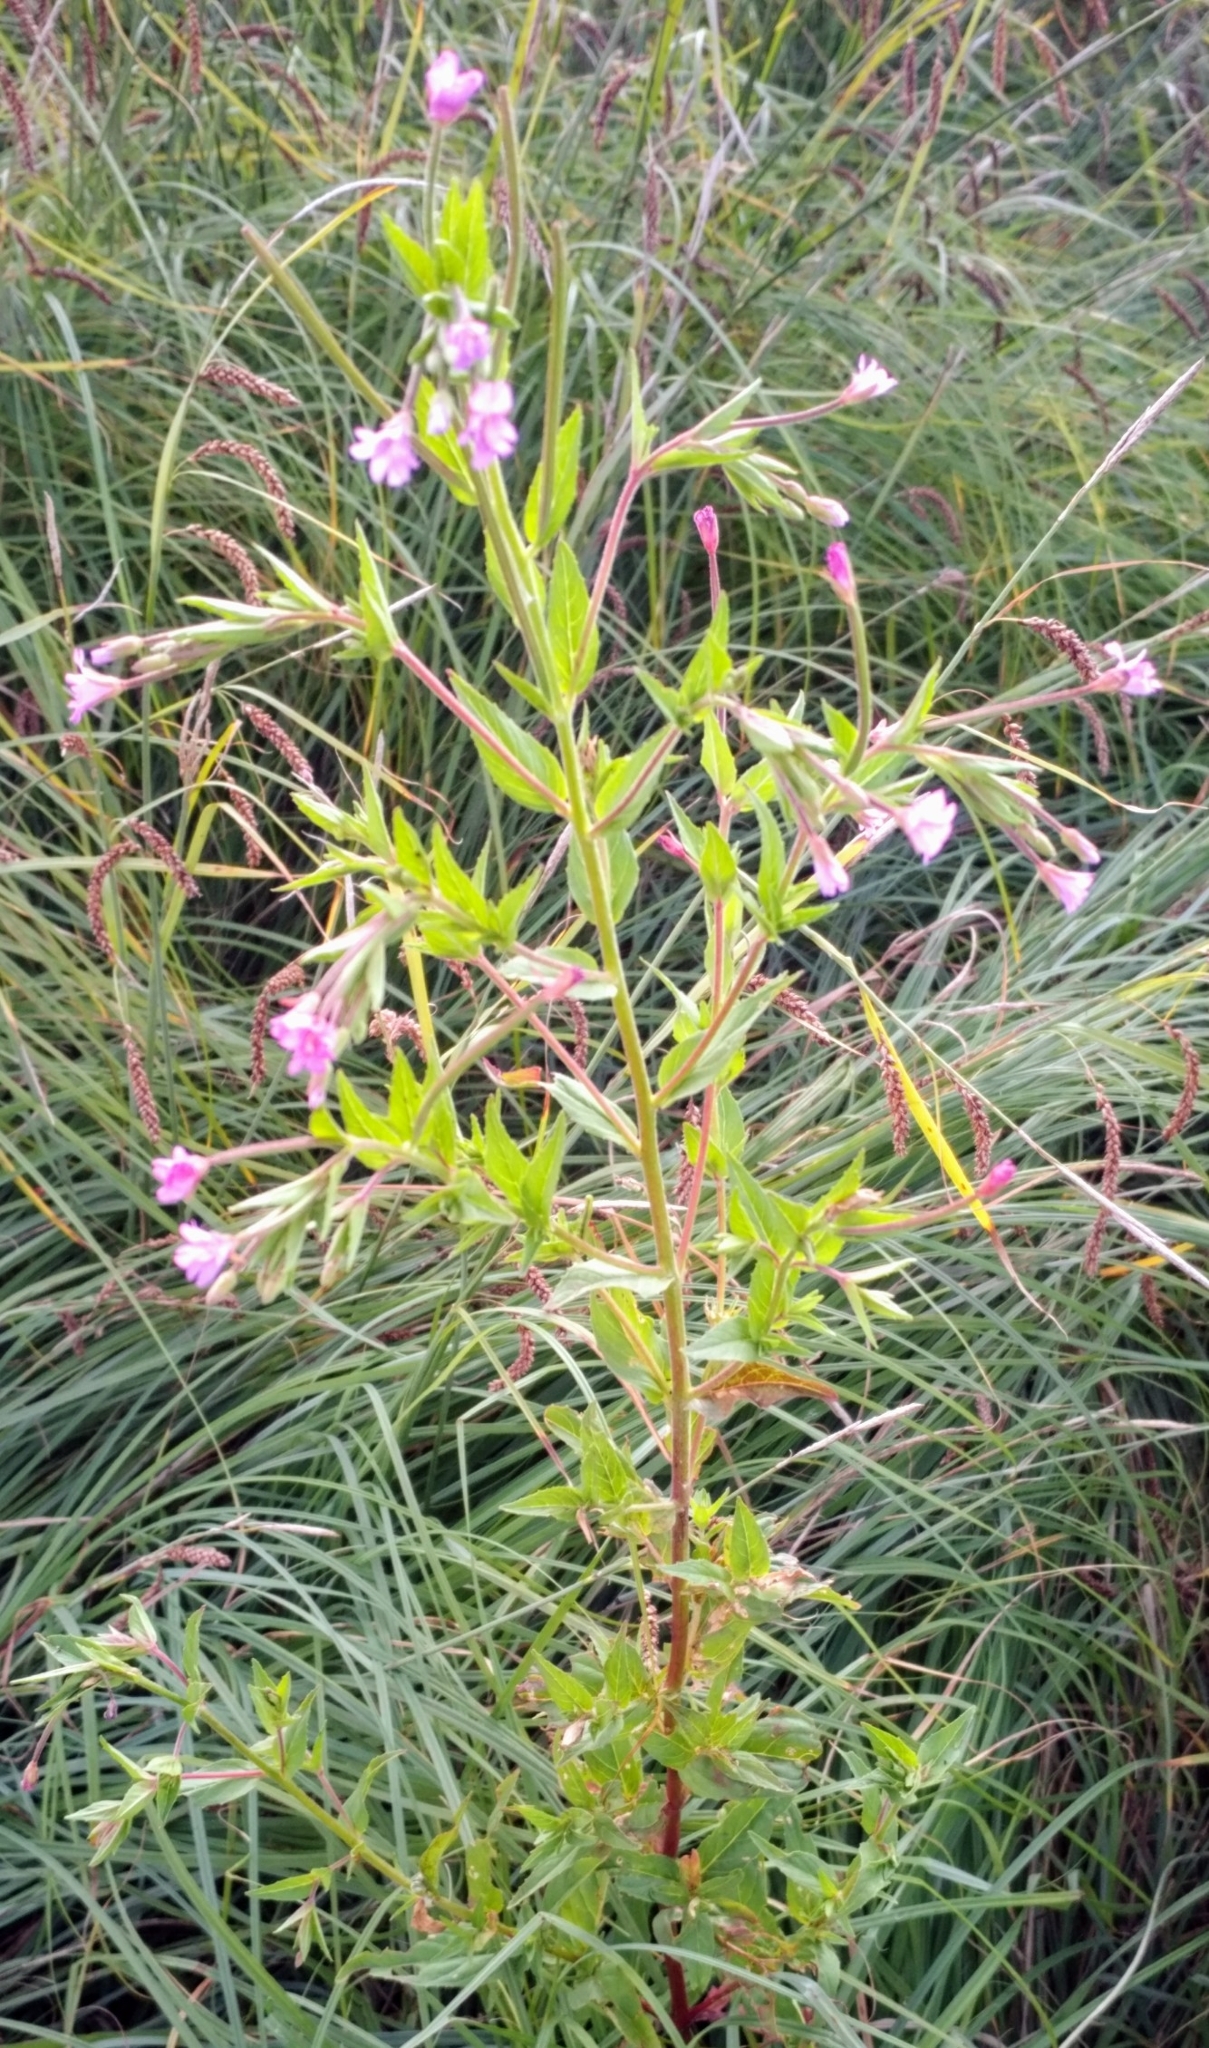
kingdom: Plantae
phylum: Tracheophyta
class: Magnoliopsida
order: Myrtales
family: Onagraceae
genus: Epilobium
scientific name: Epilobium ciliatum
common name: American willowherb
